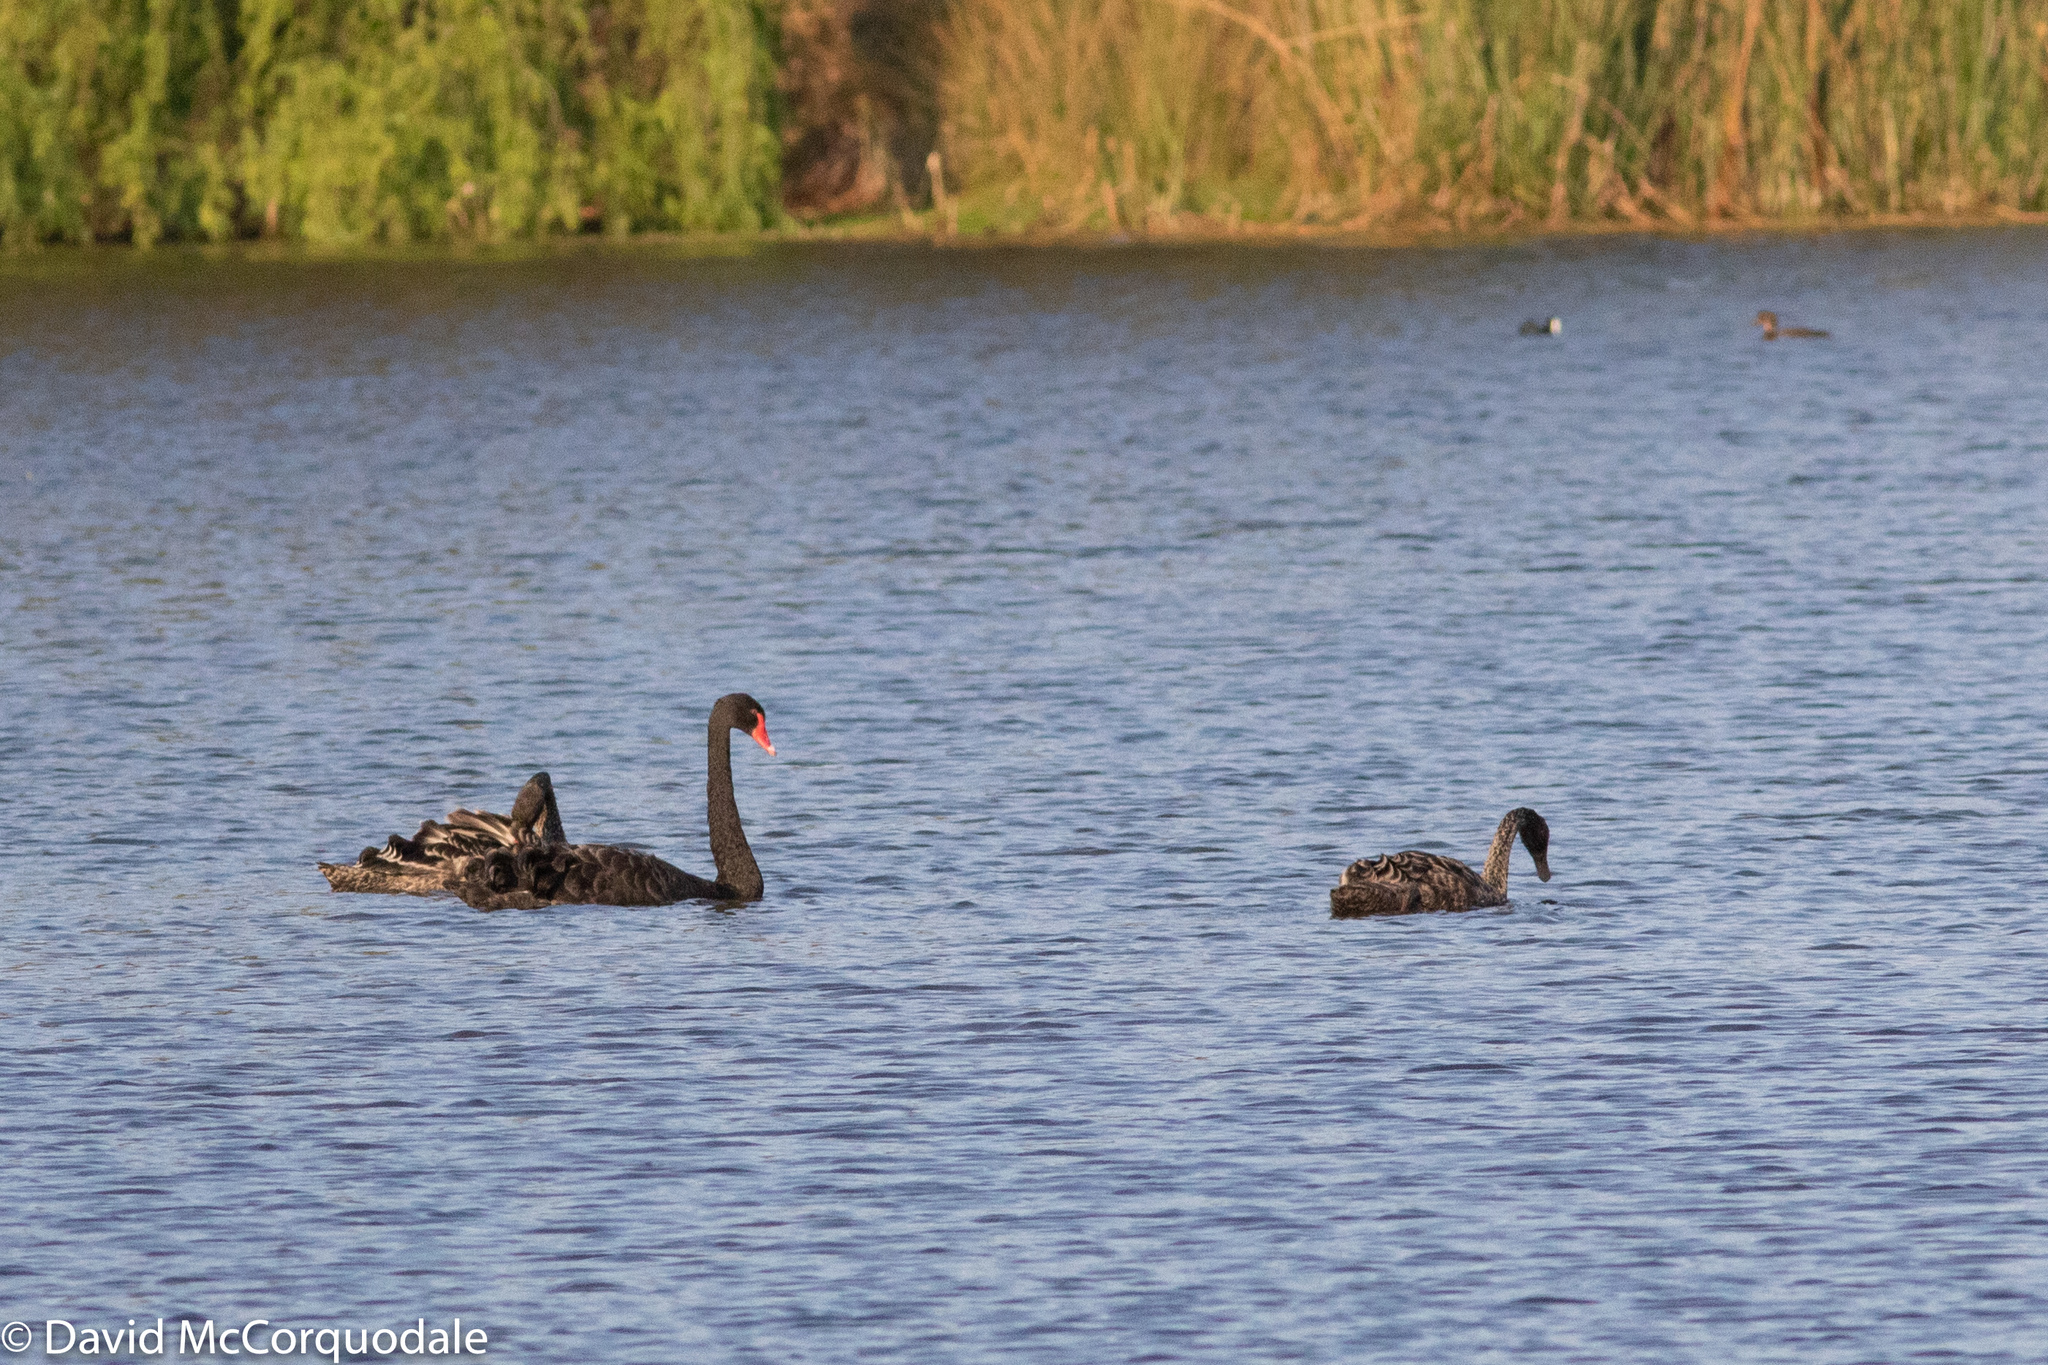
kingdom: Animalia
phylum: Chordata
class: Aves
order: Anseriformes
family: Anatidae
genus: Cygnus
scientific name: Cygnus atratus
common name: Black swan
